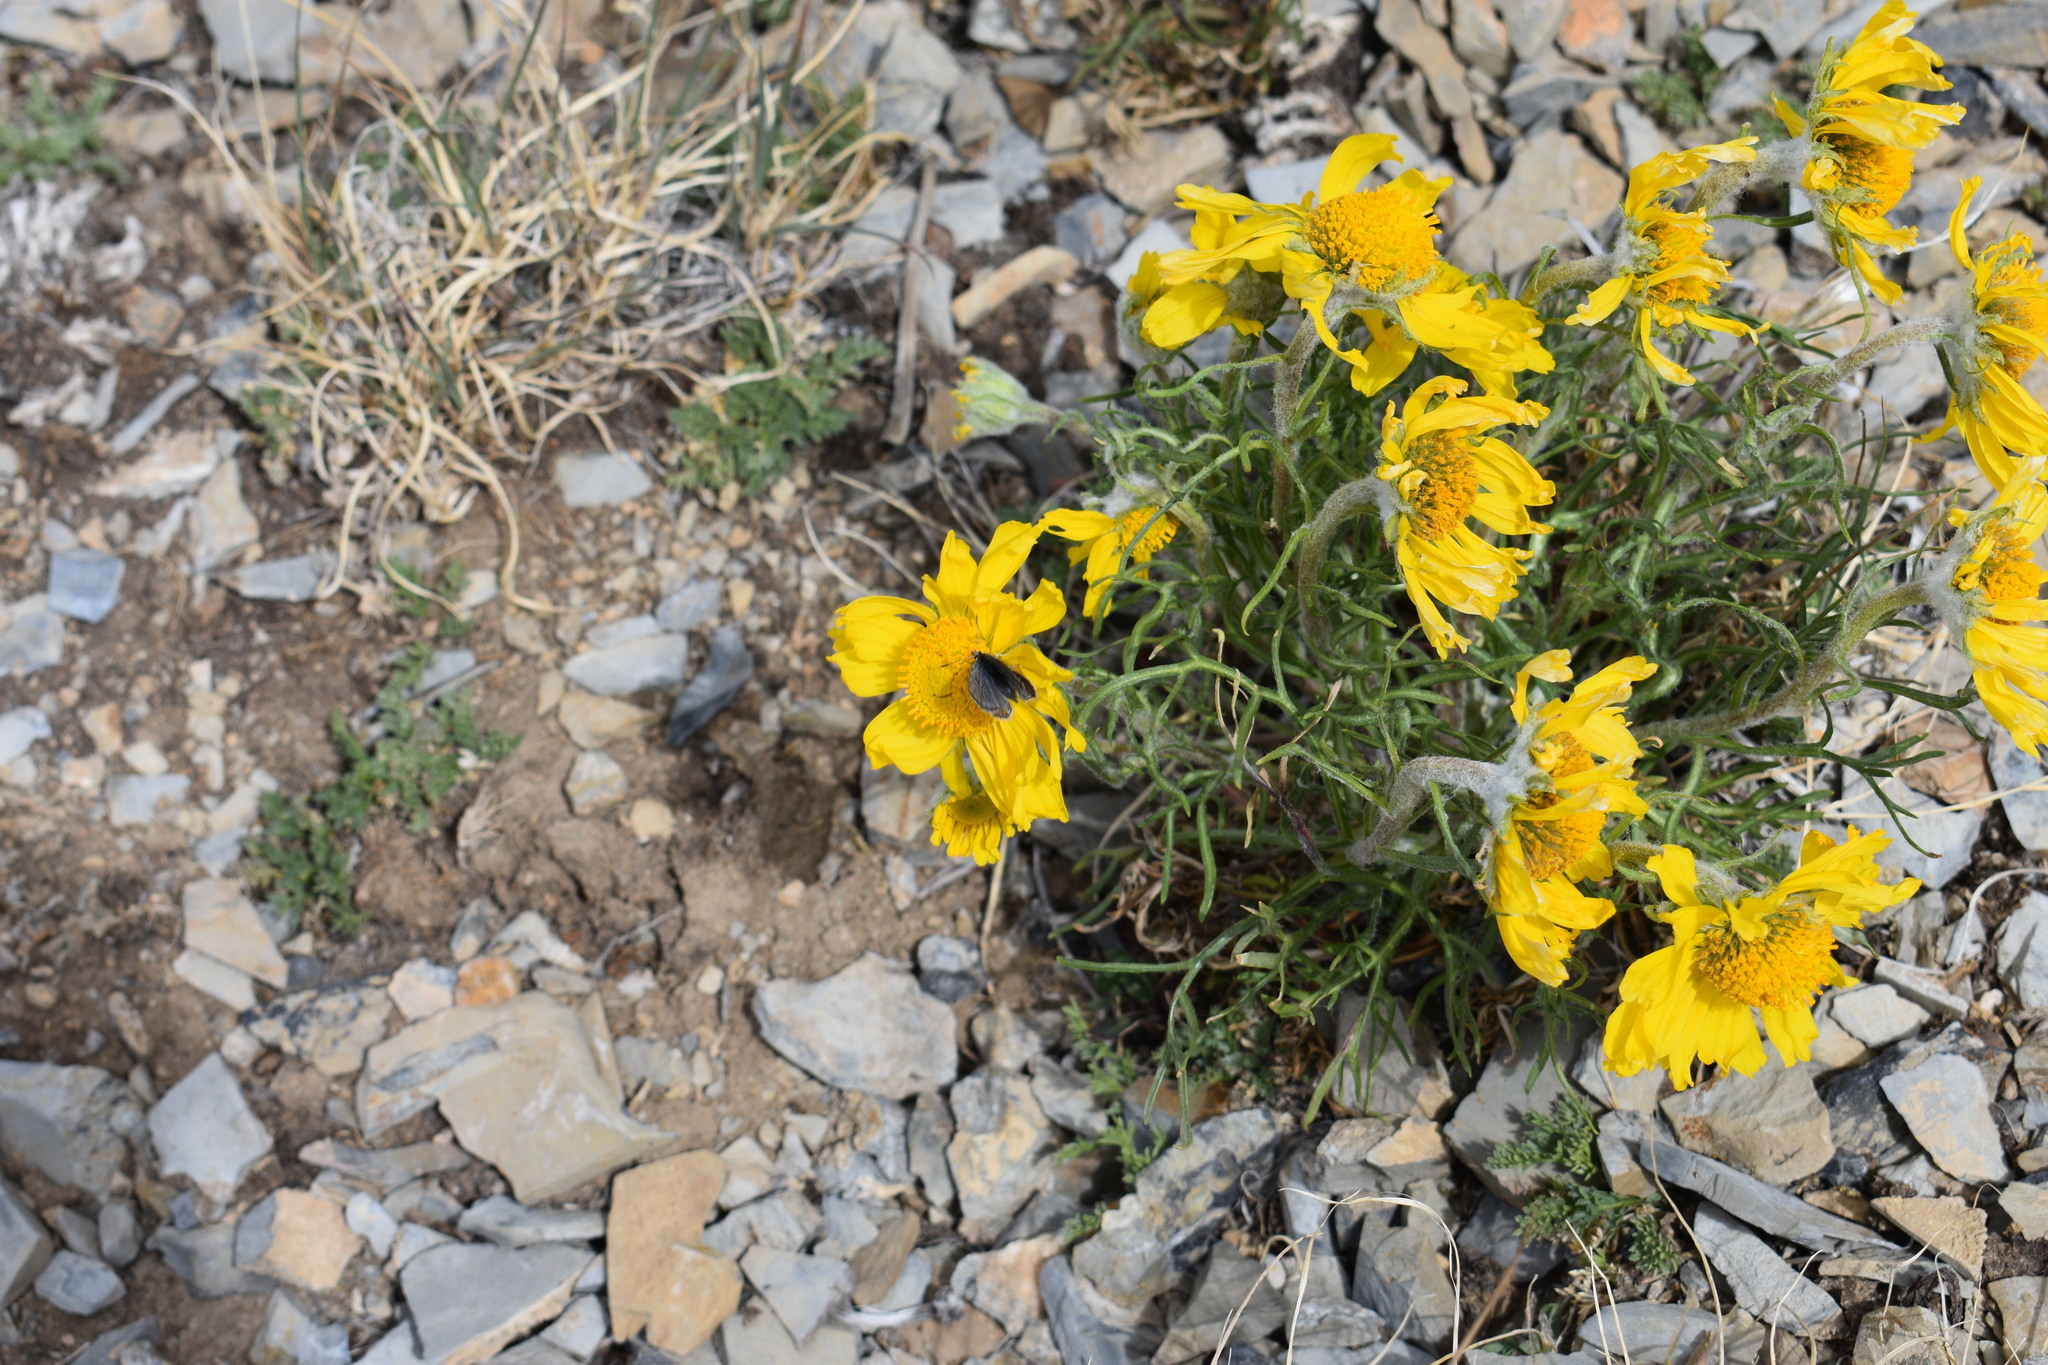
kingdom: Plantae
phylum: Tracheophyta
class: Magnoliopsida
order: Asterales
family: Asteraceae
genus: Hymenoxys
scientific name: Hymenoxys grandiflora
